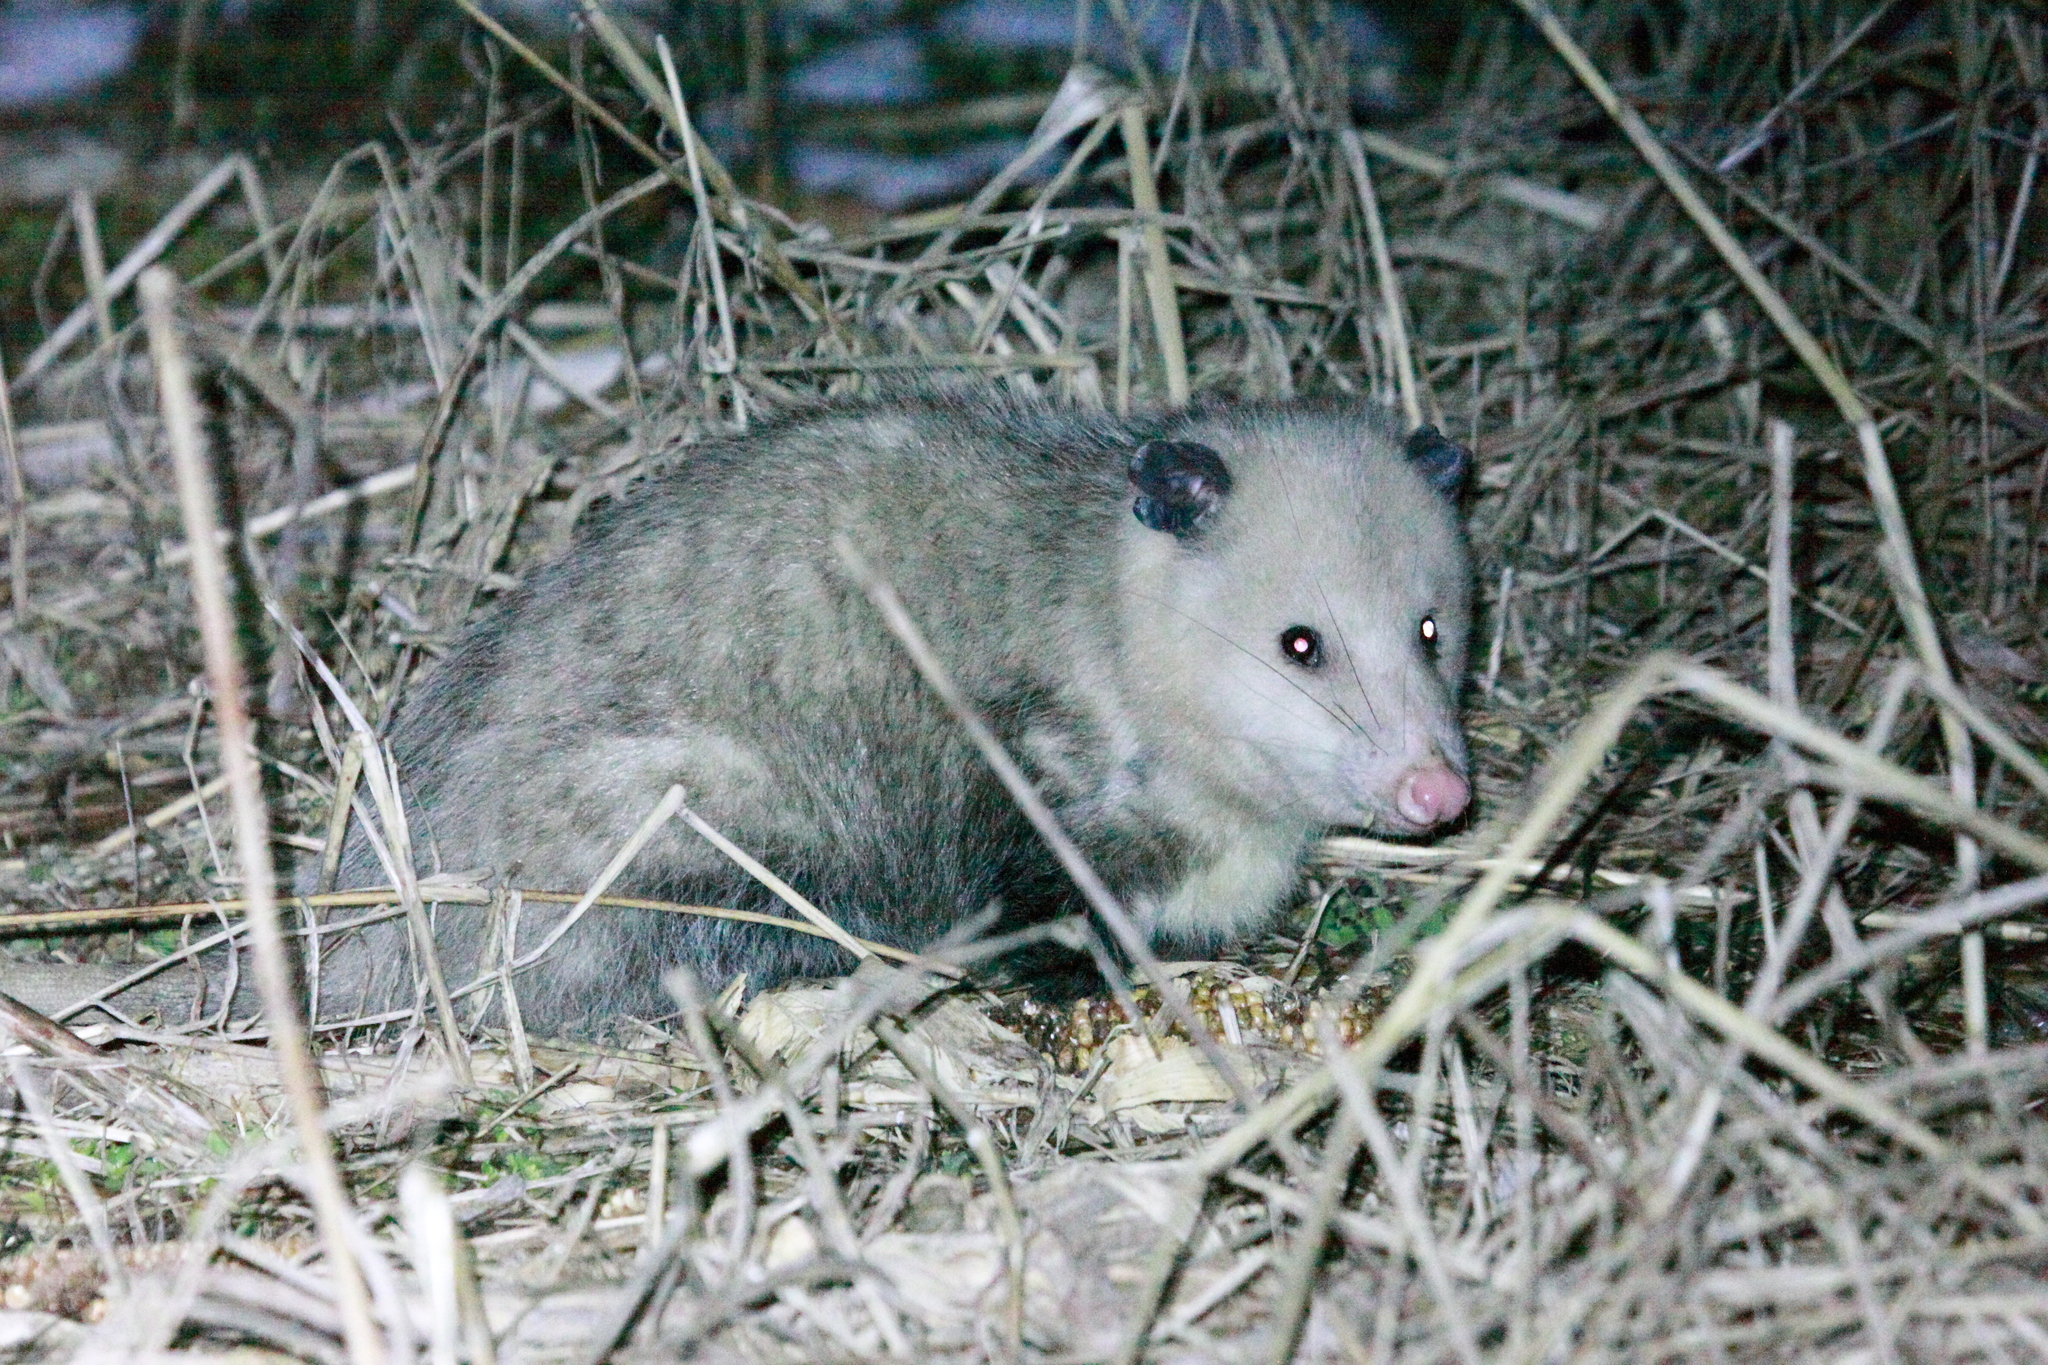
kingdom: Animalia
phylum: Chordata
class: Mammalia
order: Didelphimorphia
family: Didelphidae
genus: Didelphis
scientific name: Didelphis virginiana
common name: Virginia opossum
